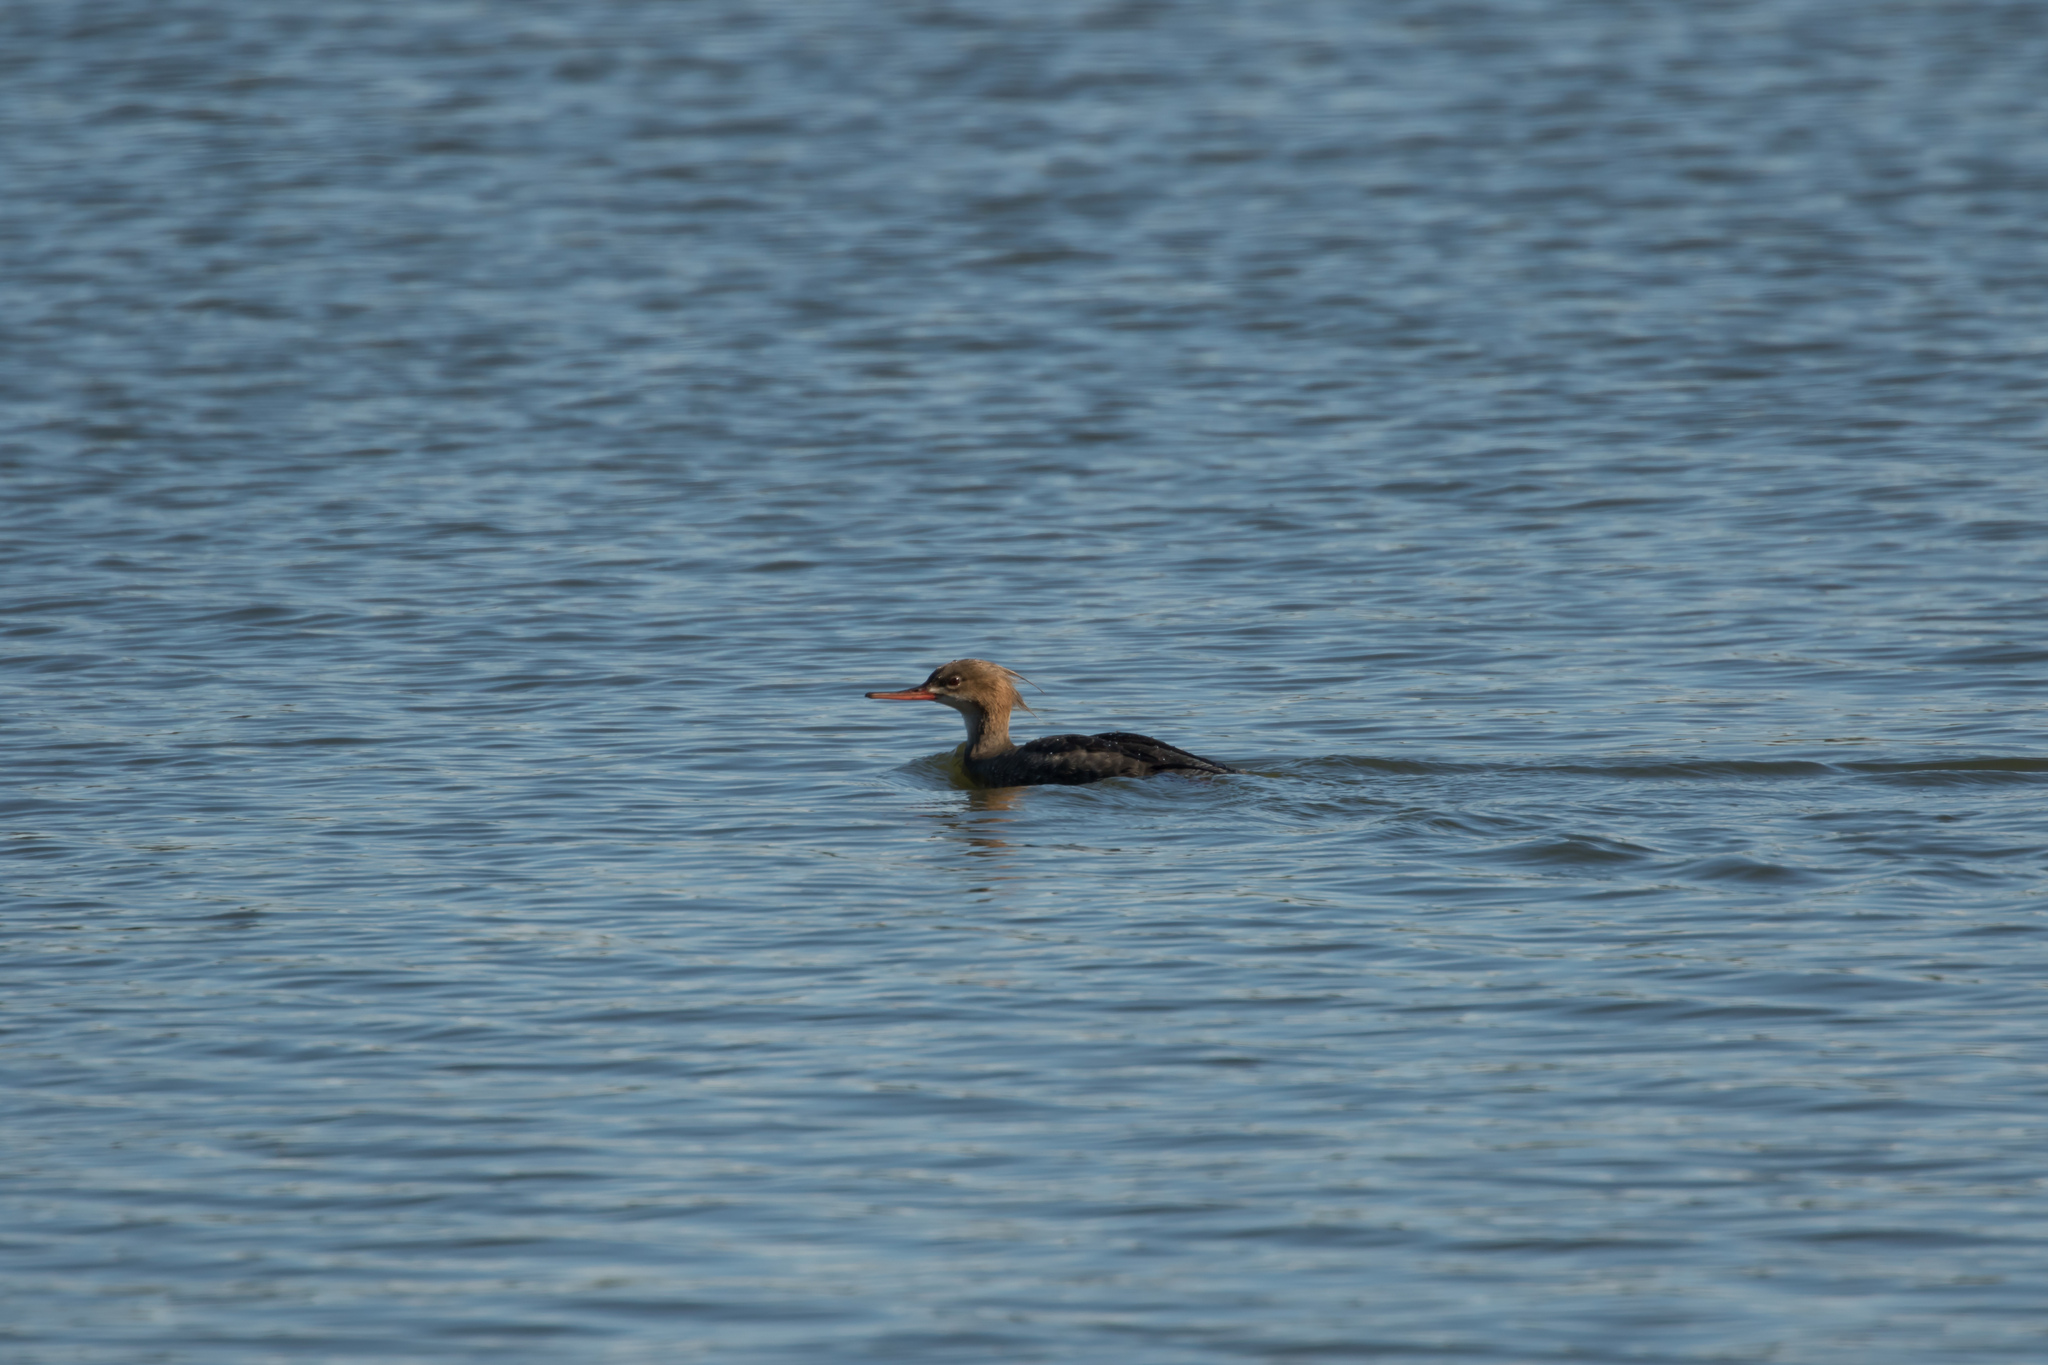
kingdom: Animalia
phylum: Chordata
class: Aves
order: Anseriformes
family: Anatidae
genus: Mergus
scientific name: Mergus serrator
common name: Red-breasted merganser
